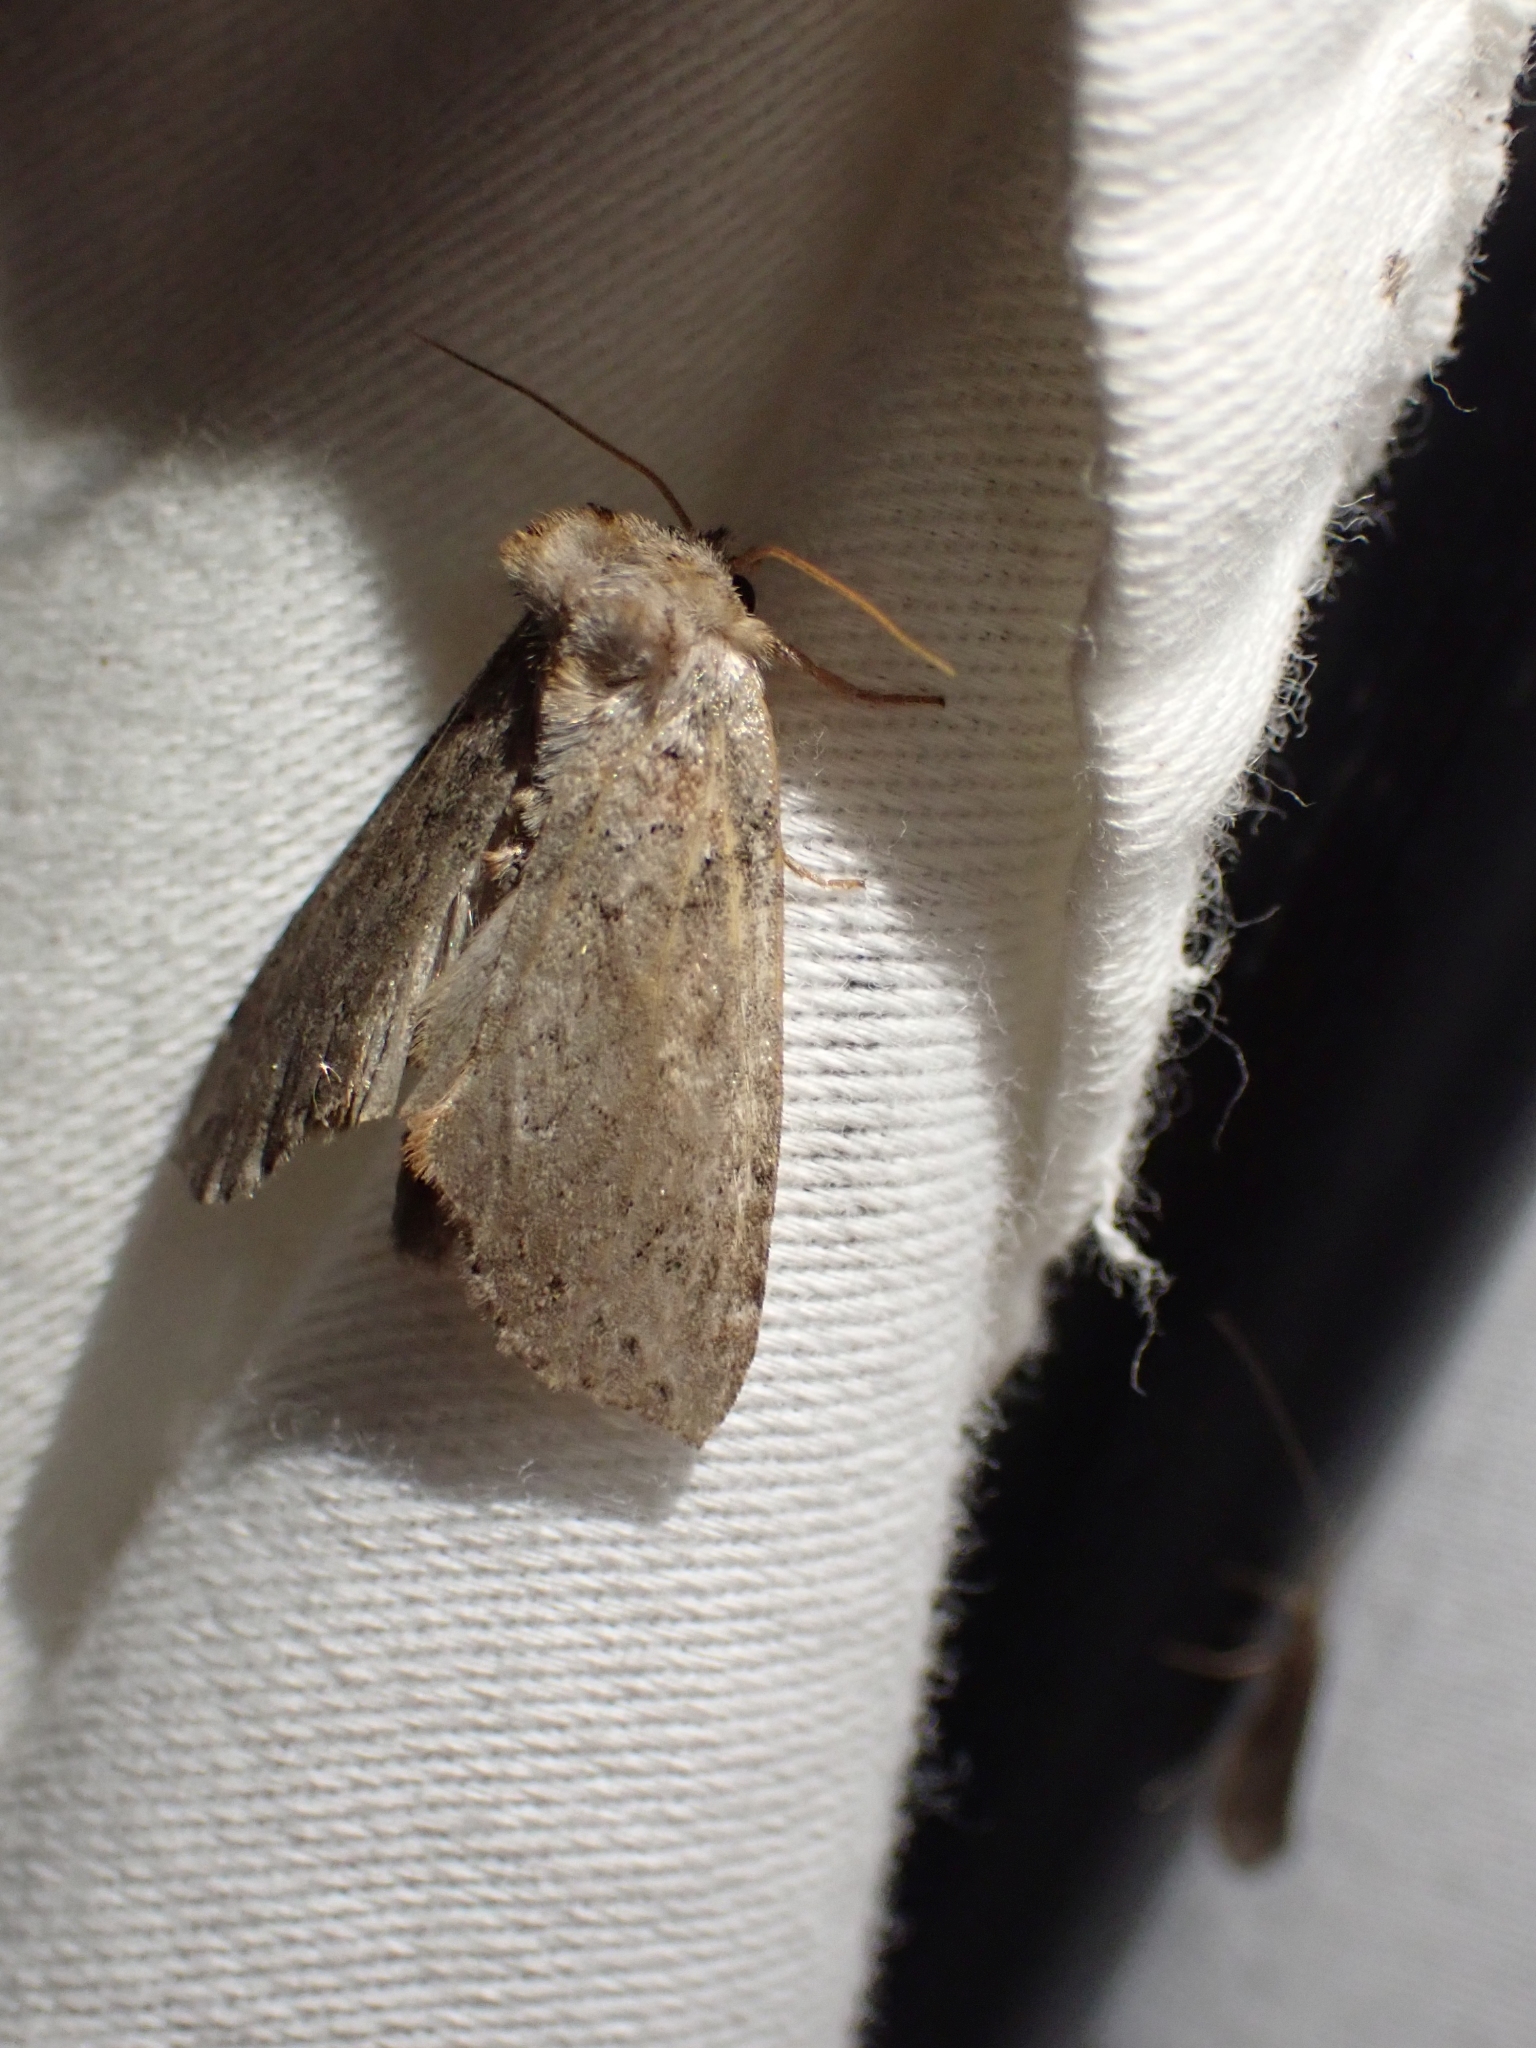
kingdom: Animalia
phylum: Arthropoda
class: Insecta
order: Lepidoptera
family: Drepanidae
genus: Pseudothyatira
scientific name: Pseudothyatira cymatophoroides
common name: Tufted thyatirid moth
